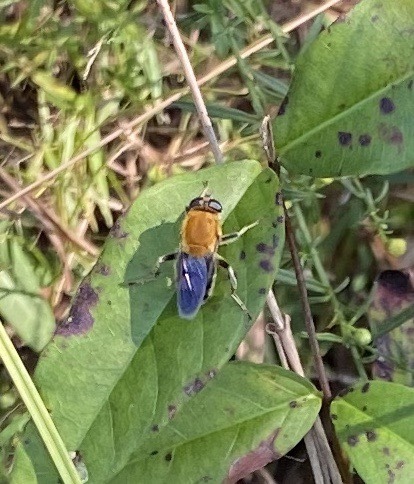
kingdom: Animalia
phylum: Arthropoda
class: Insecta
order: Diptera
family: Syrphidae
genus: Pterallastes
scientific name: Pterallastes thoracicus
